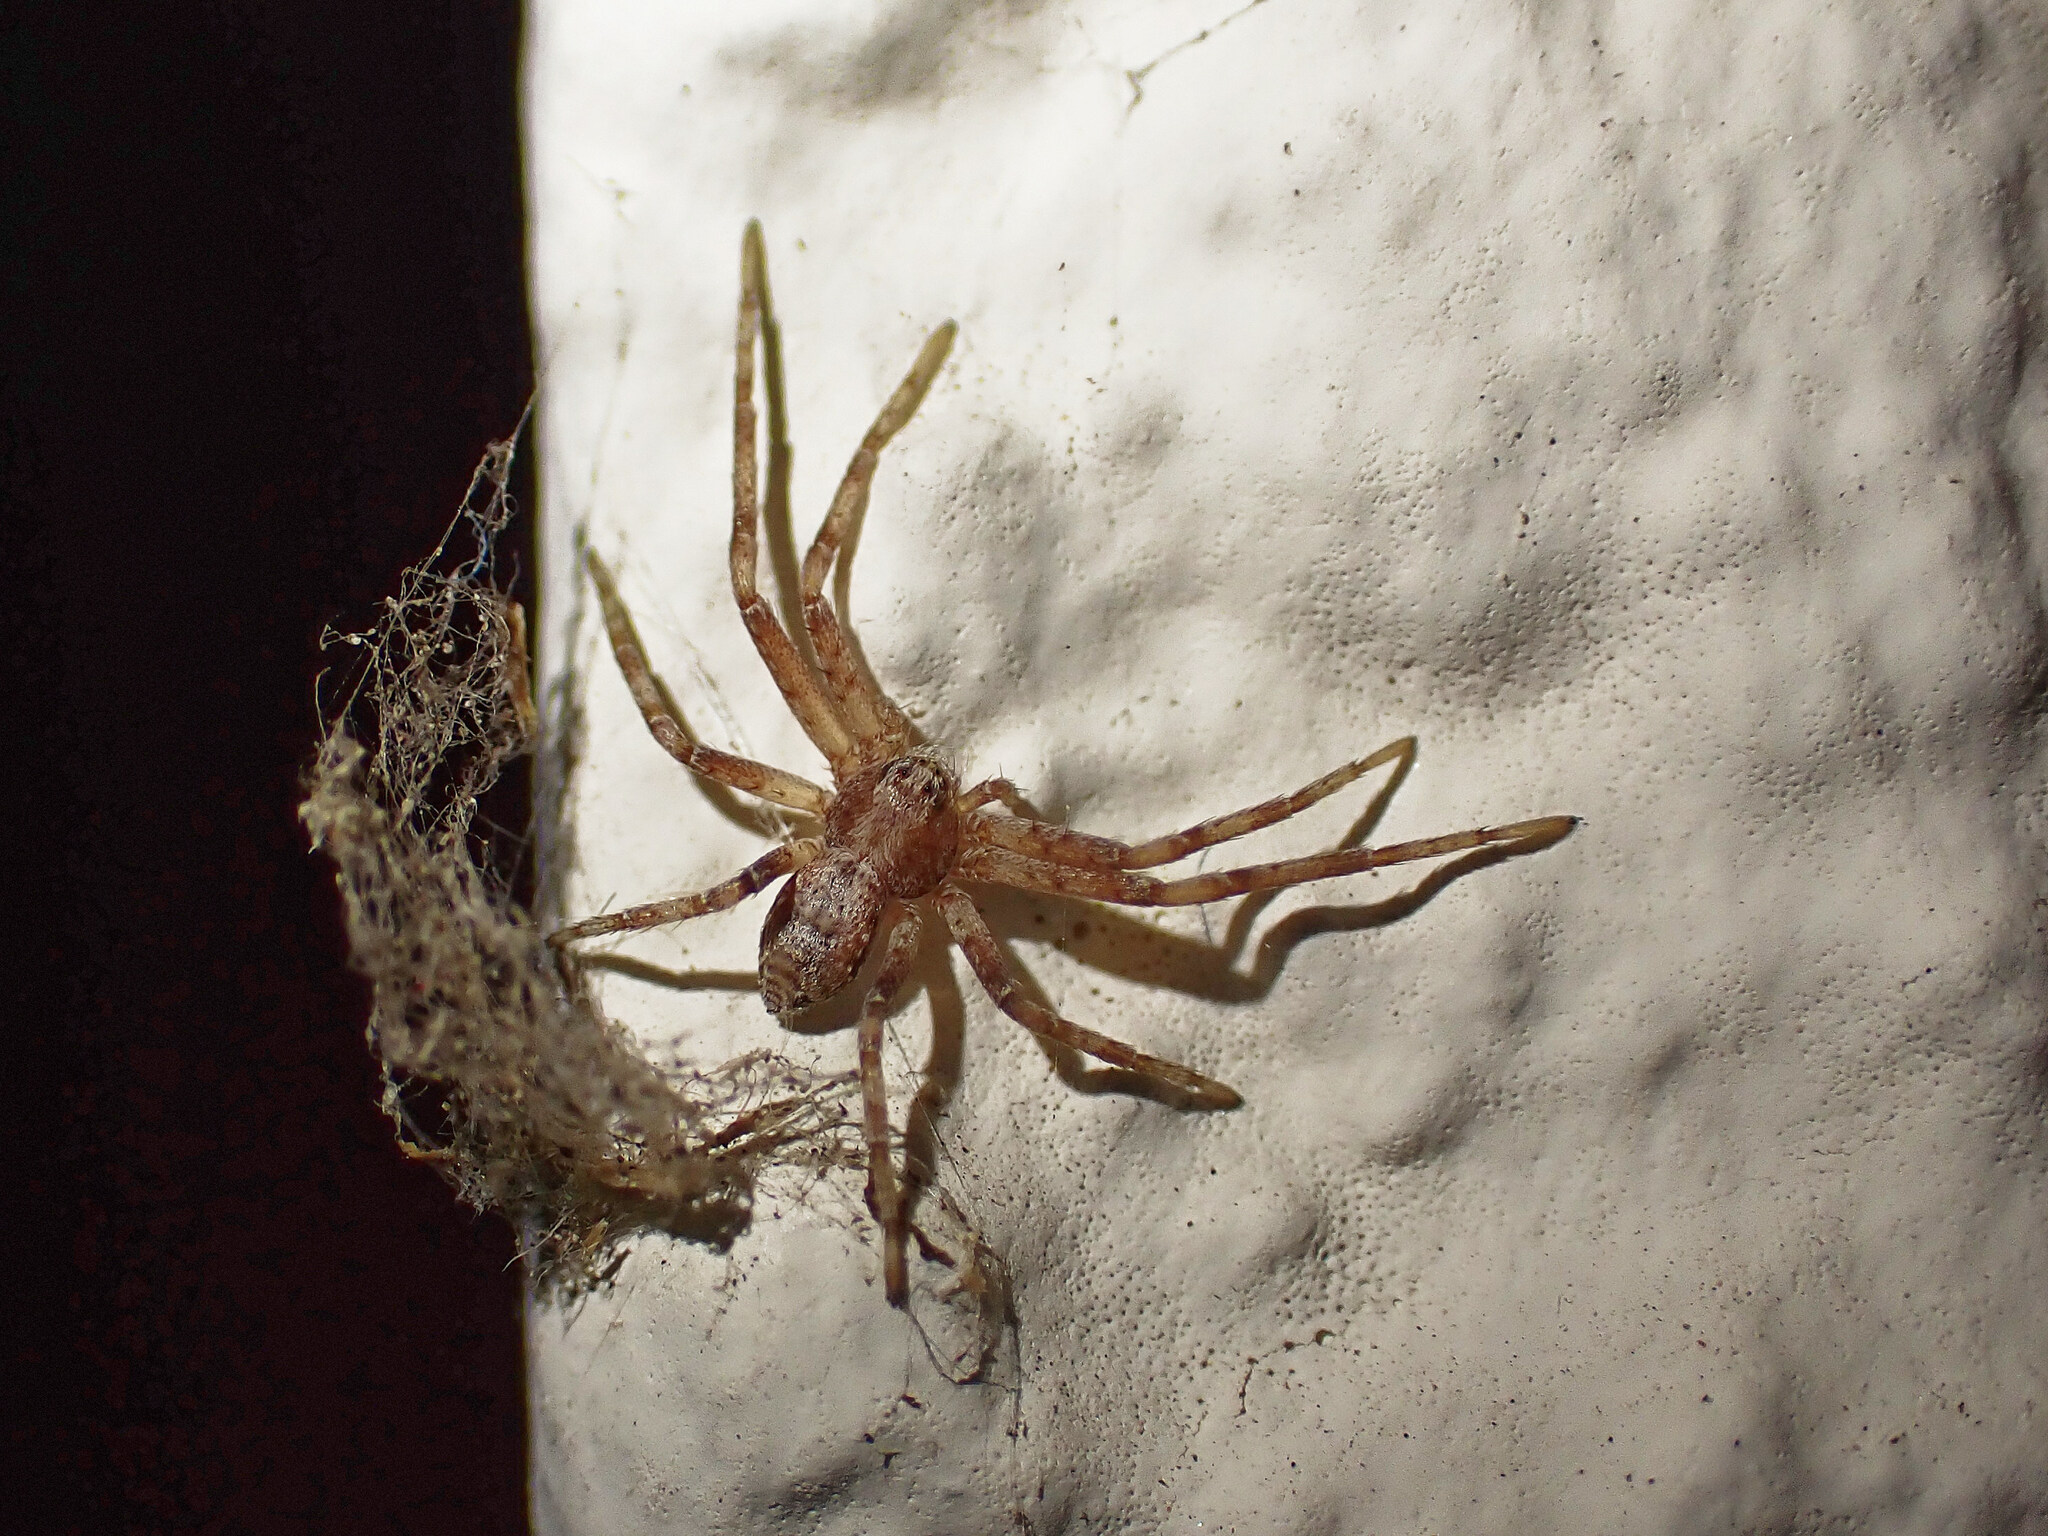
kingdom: Animalia
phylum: Arthropoda
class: Arachnida
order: Araneae
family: Philodromidae
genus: Philodromus
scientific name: Philodromus
